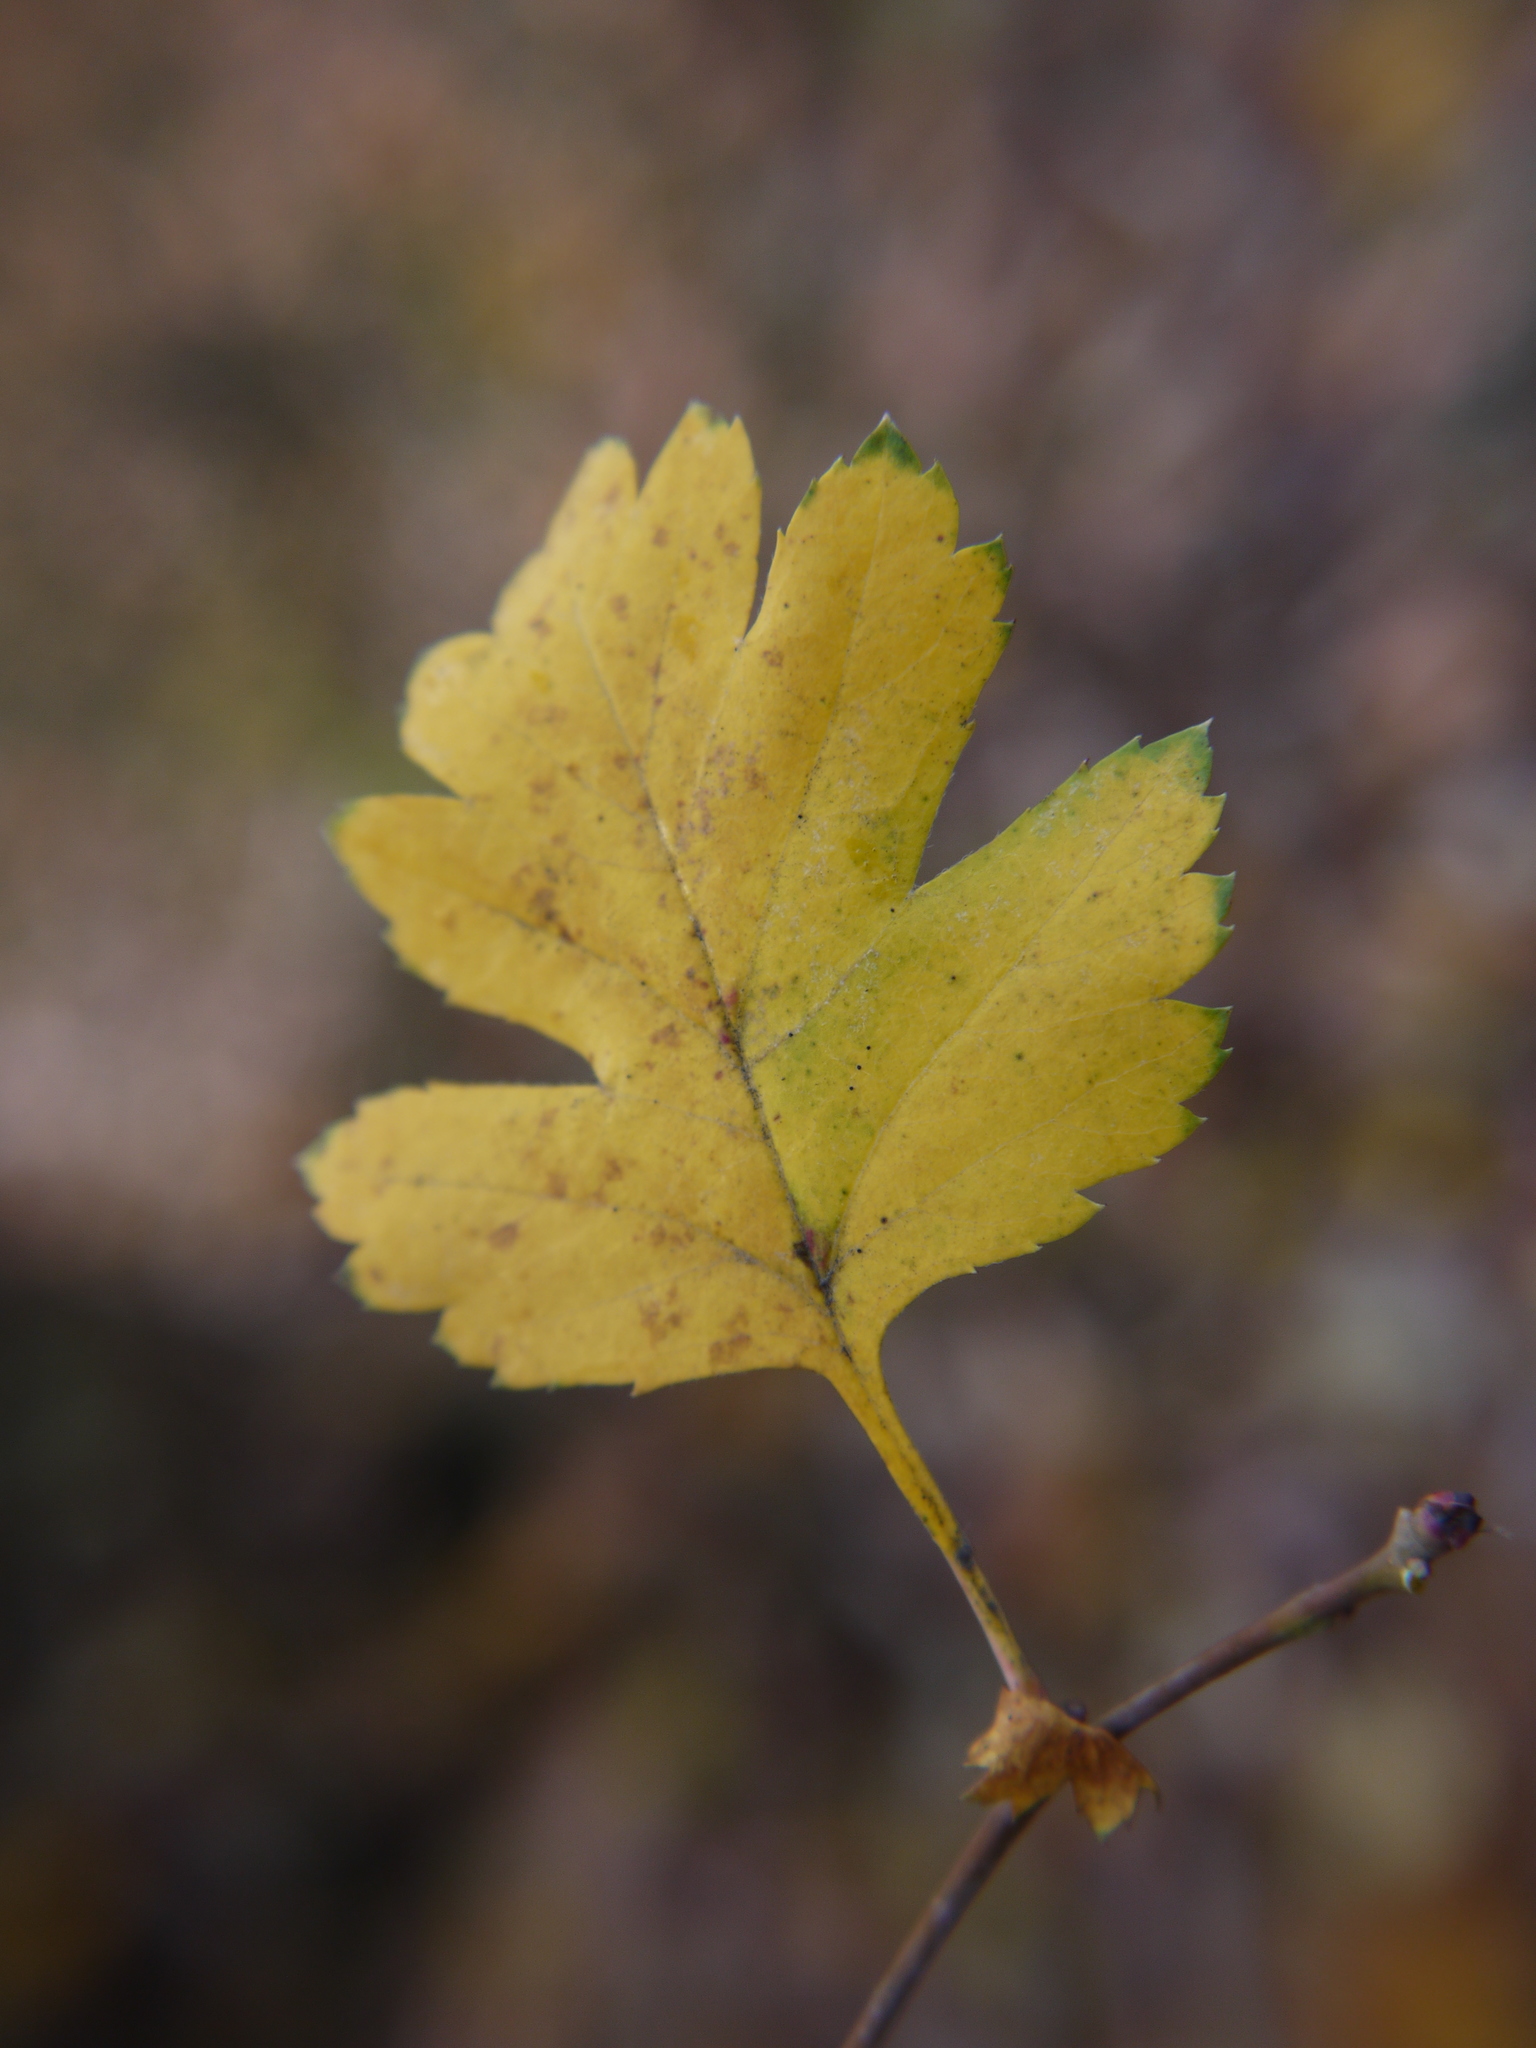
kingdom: Plantae
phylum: Tracheophyta
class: Magnoliopsida
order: Rosales
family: Rosaceae
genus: Crataegus
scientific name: Crataegus monogyna
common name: Hawthorn
